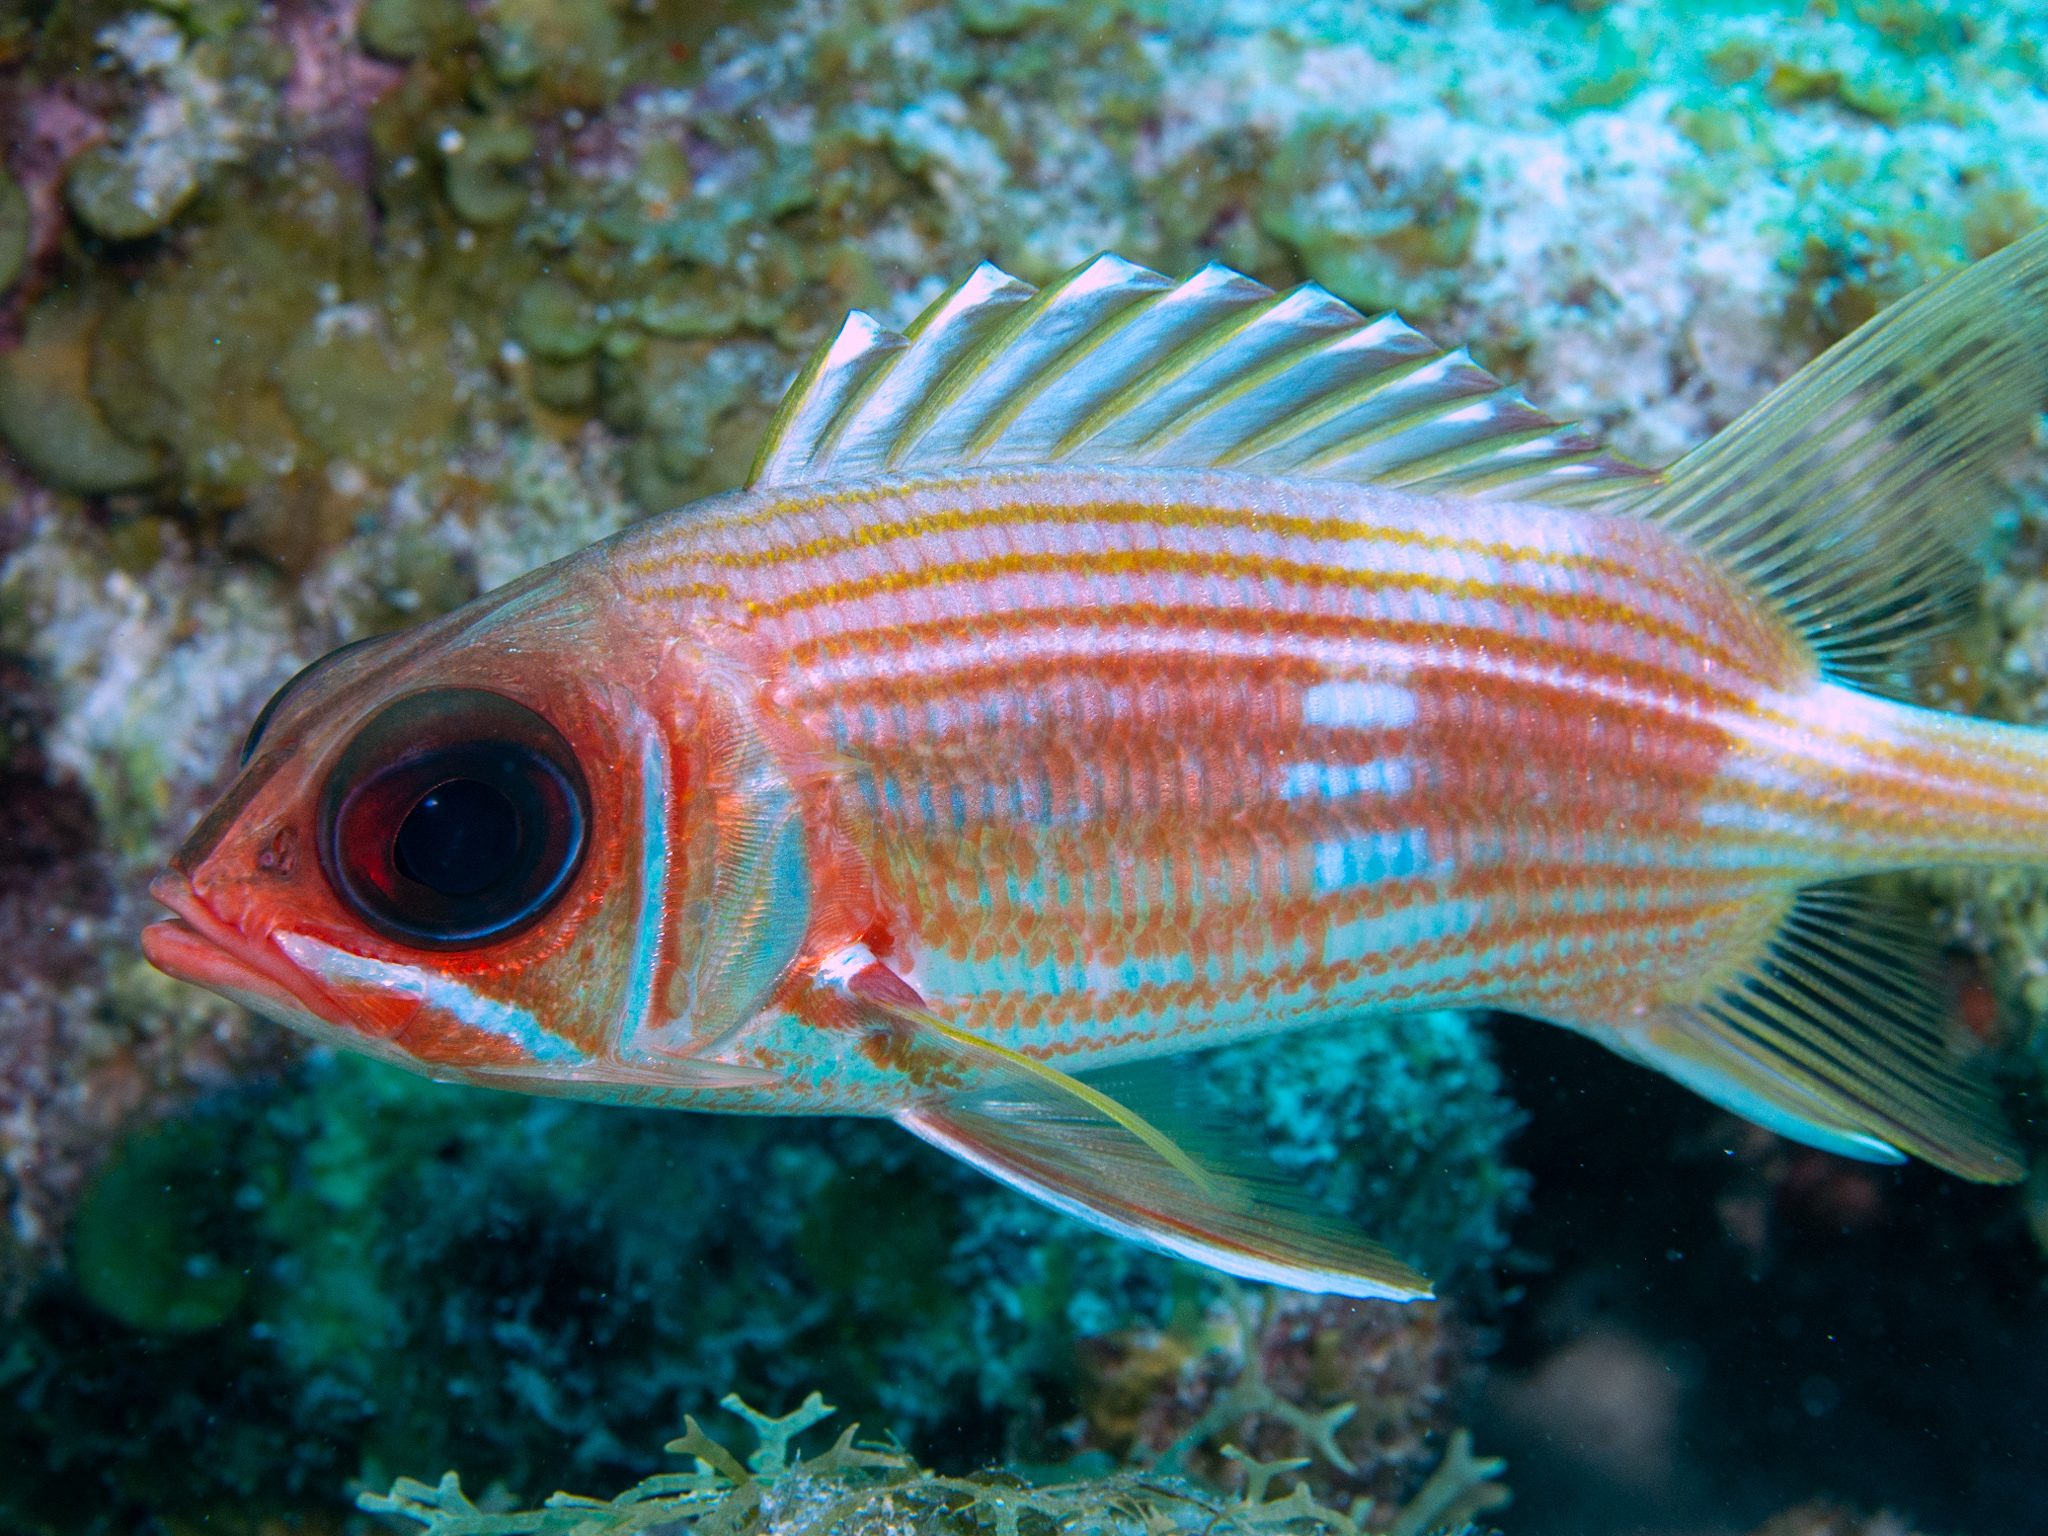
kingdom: Animalia
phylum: Chordata
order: Beryciformes
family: Holocentridae
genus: Holocentrus
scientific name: Holocentrus rufus
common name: Longspine squirrelfish
